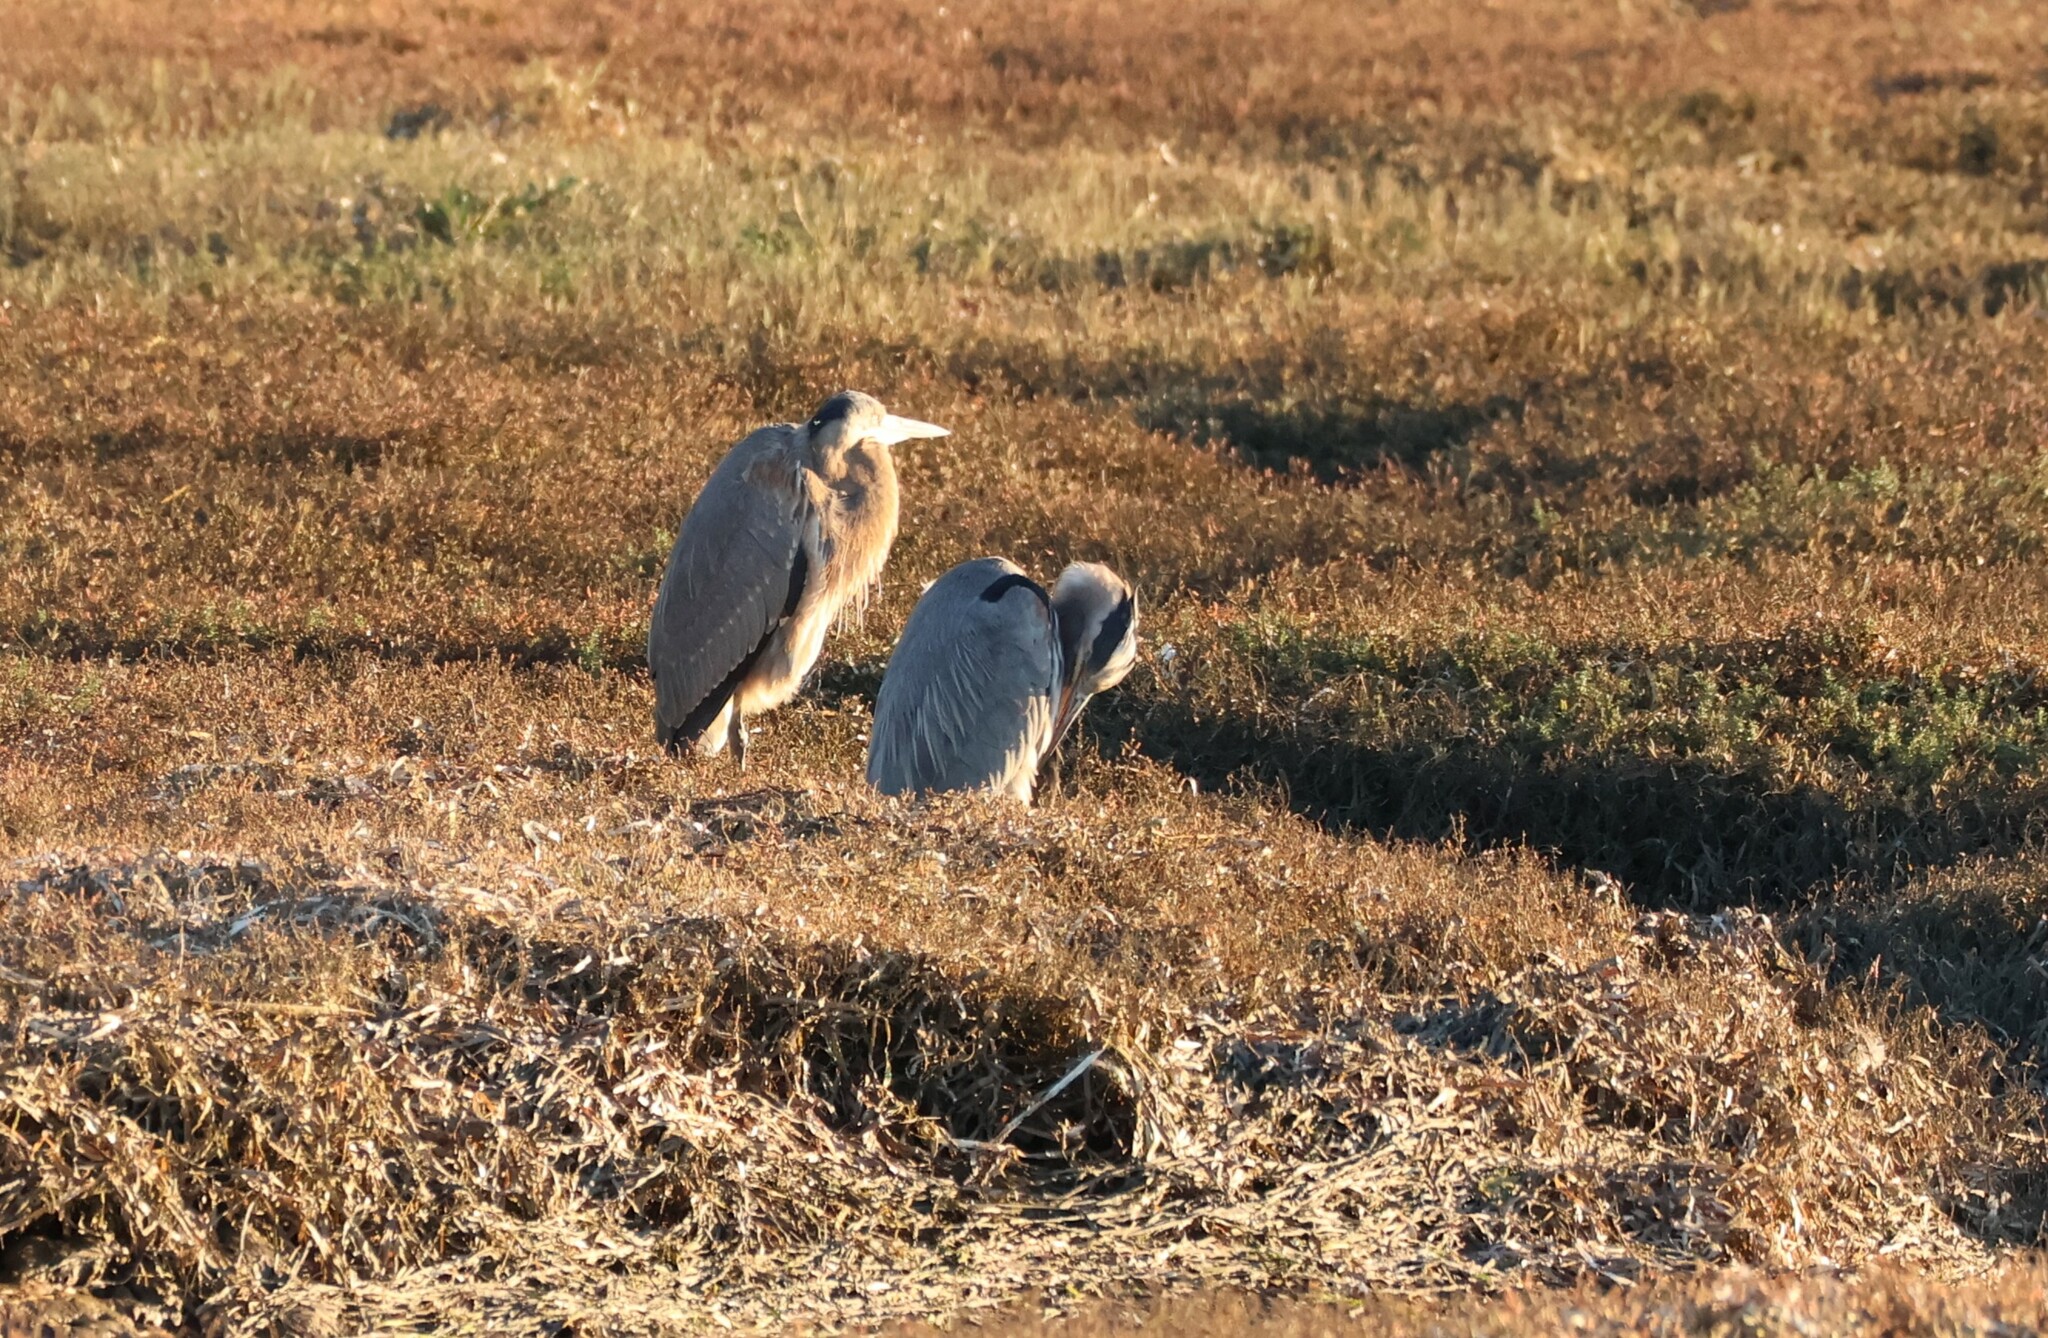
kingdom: Animalia
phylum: Chordata
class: Aves
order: Pelecaniformes
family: Ardeidae
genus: Ardea
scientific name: Ardea herodias
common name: Great blue heron
